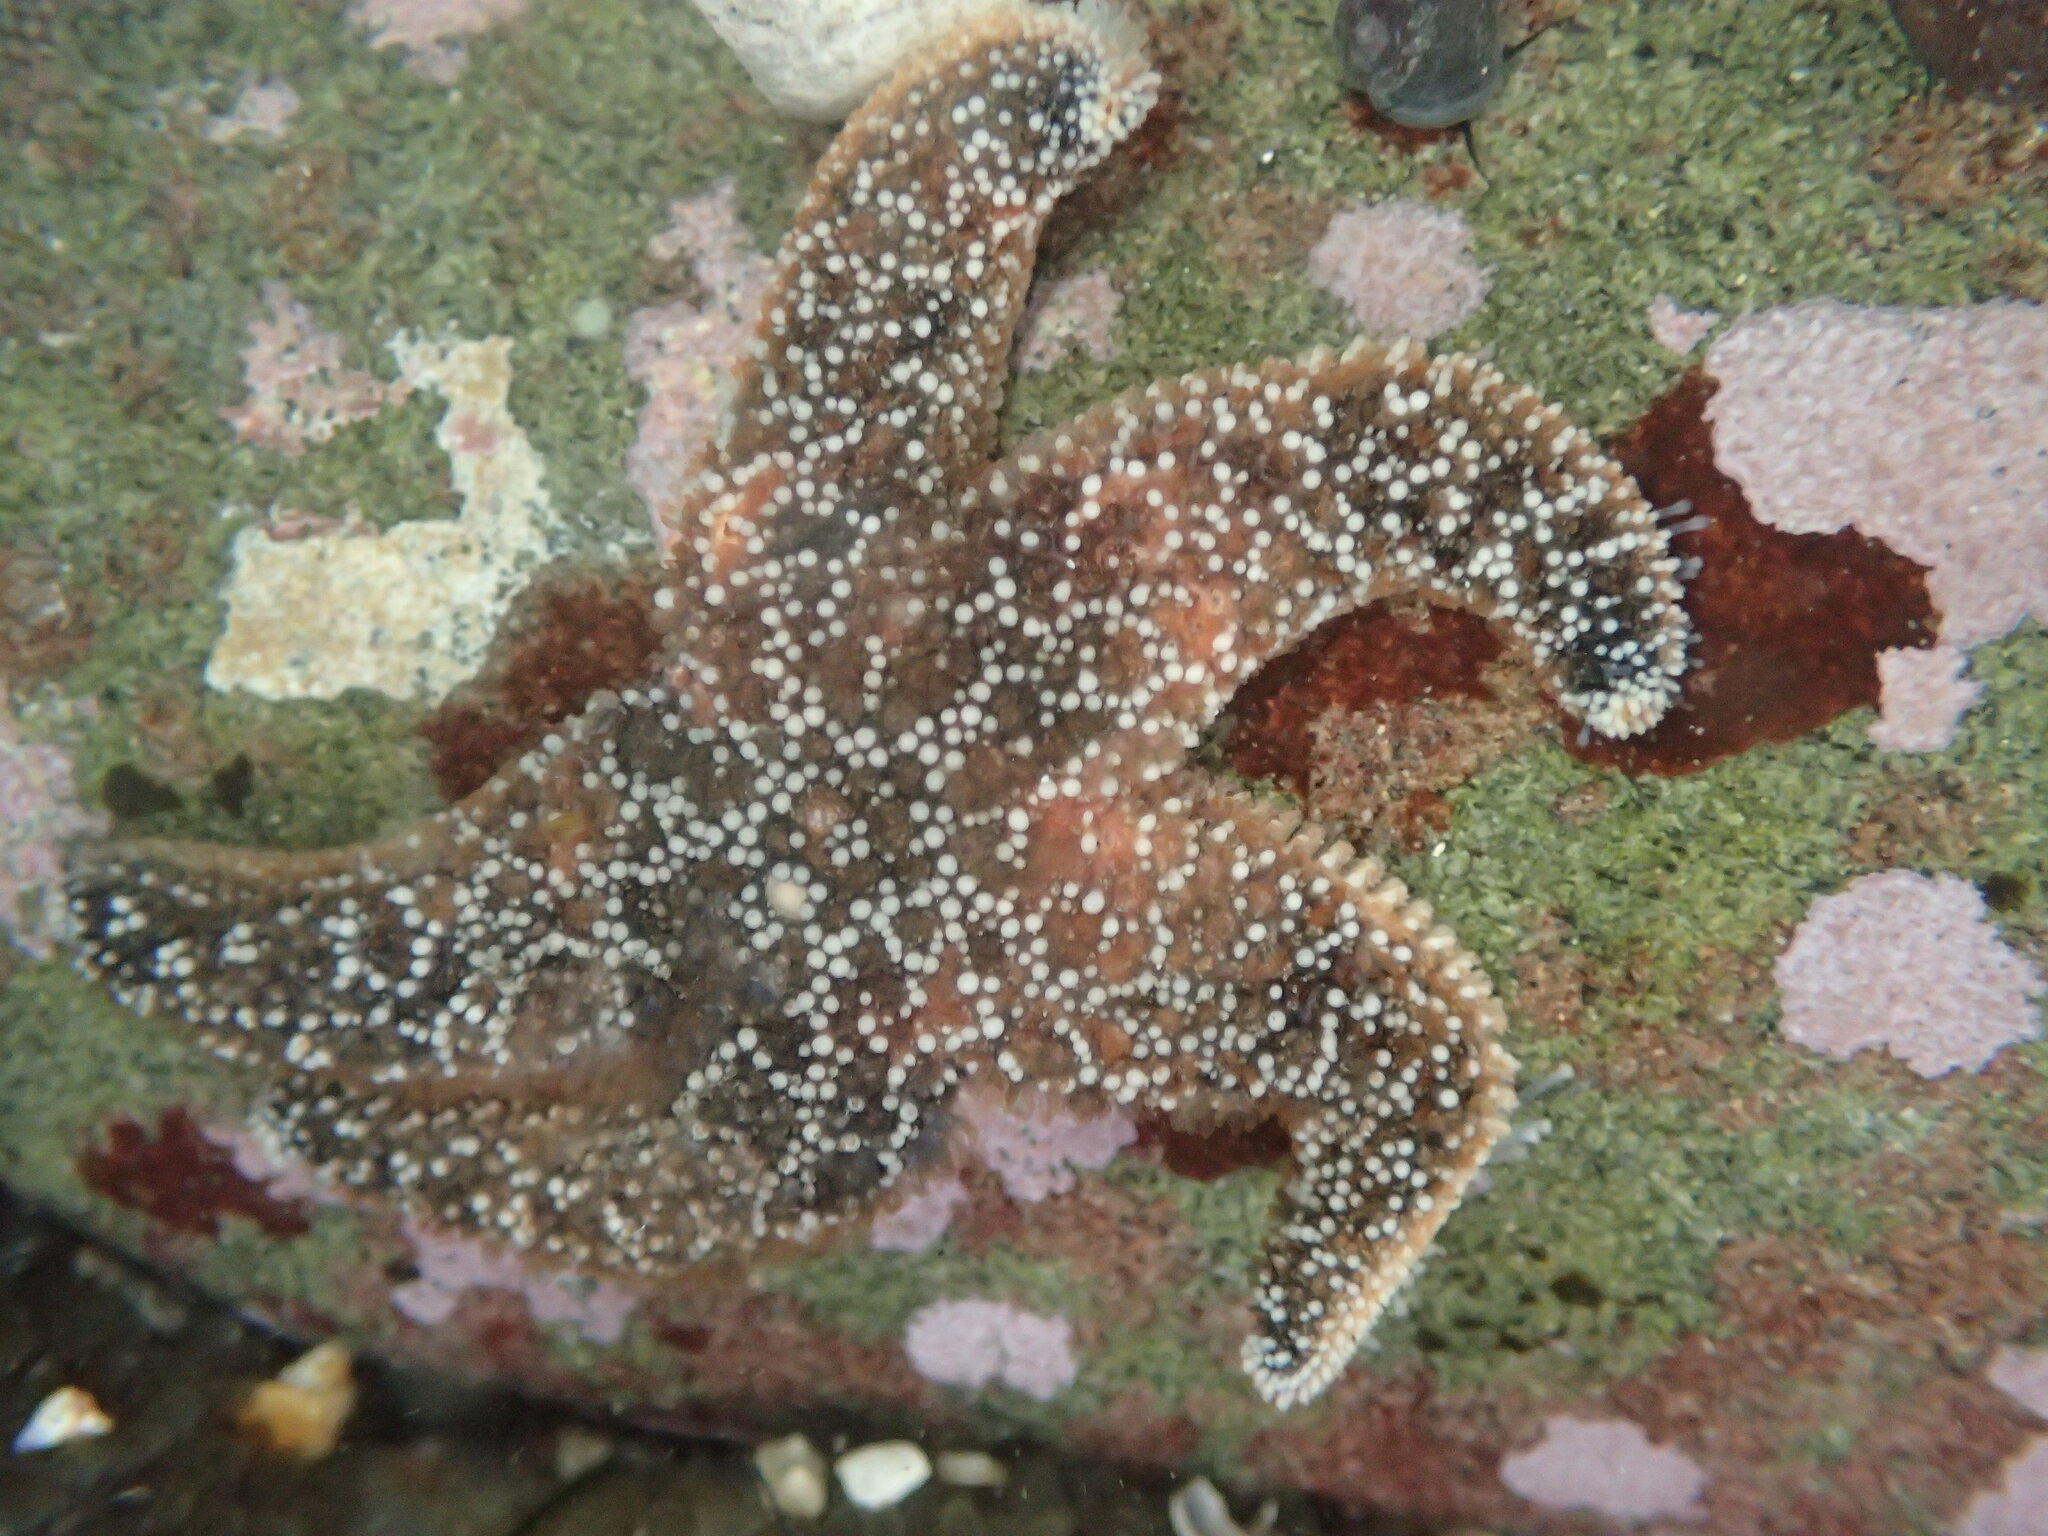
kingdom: Animalia
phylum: Echinodermata
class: Asteroidea
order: Forcipulatida
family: Asteriidae
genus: Pisaster
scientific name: Pisaster ochraceus
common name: Ochre stars
